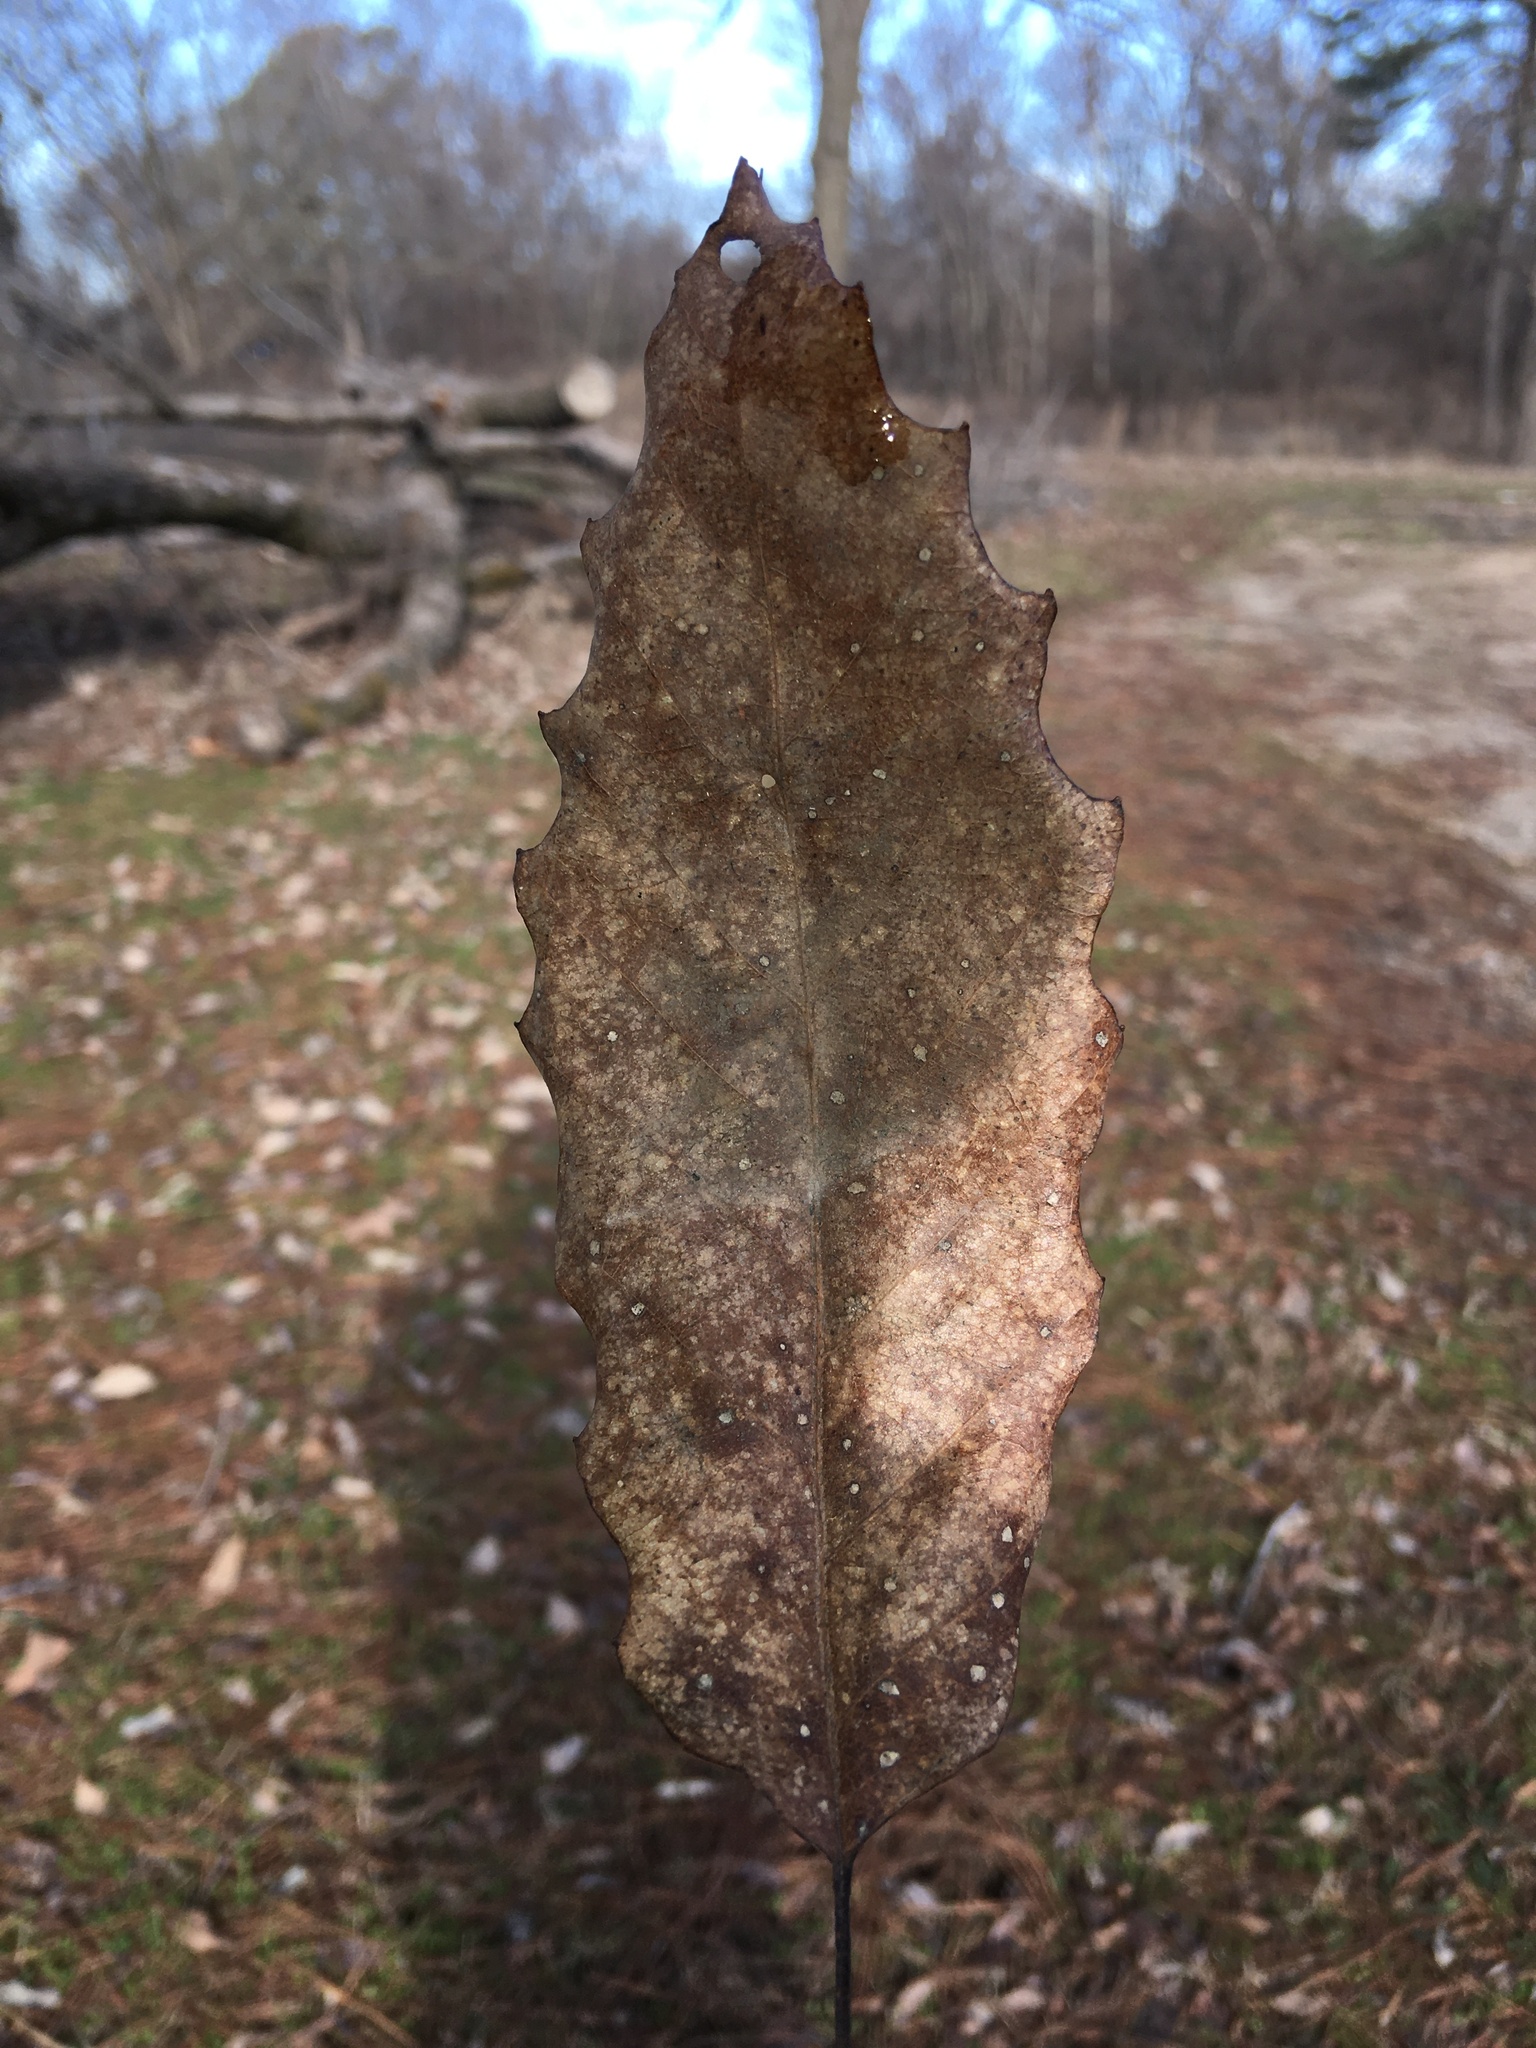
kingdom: Plantae
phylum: Tracheophyta
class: Magnoliopsida
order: Fagales
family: Fagaceae
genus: Quercus
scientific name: Quercus muehlenbergii
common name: Chinkapin oak
